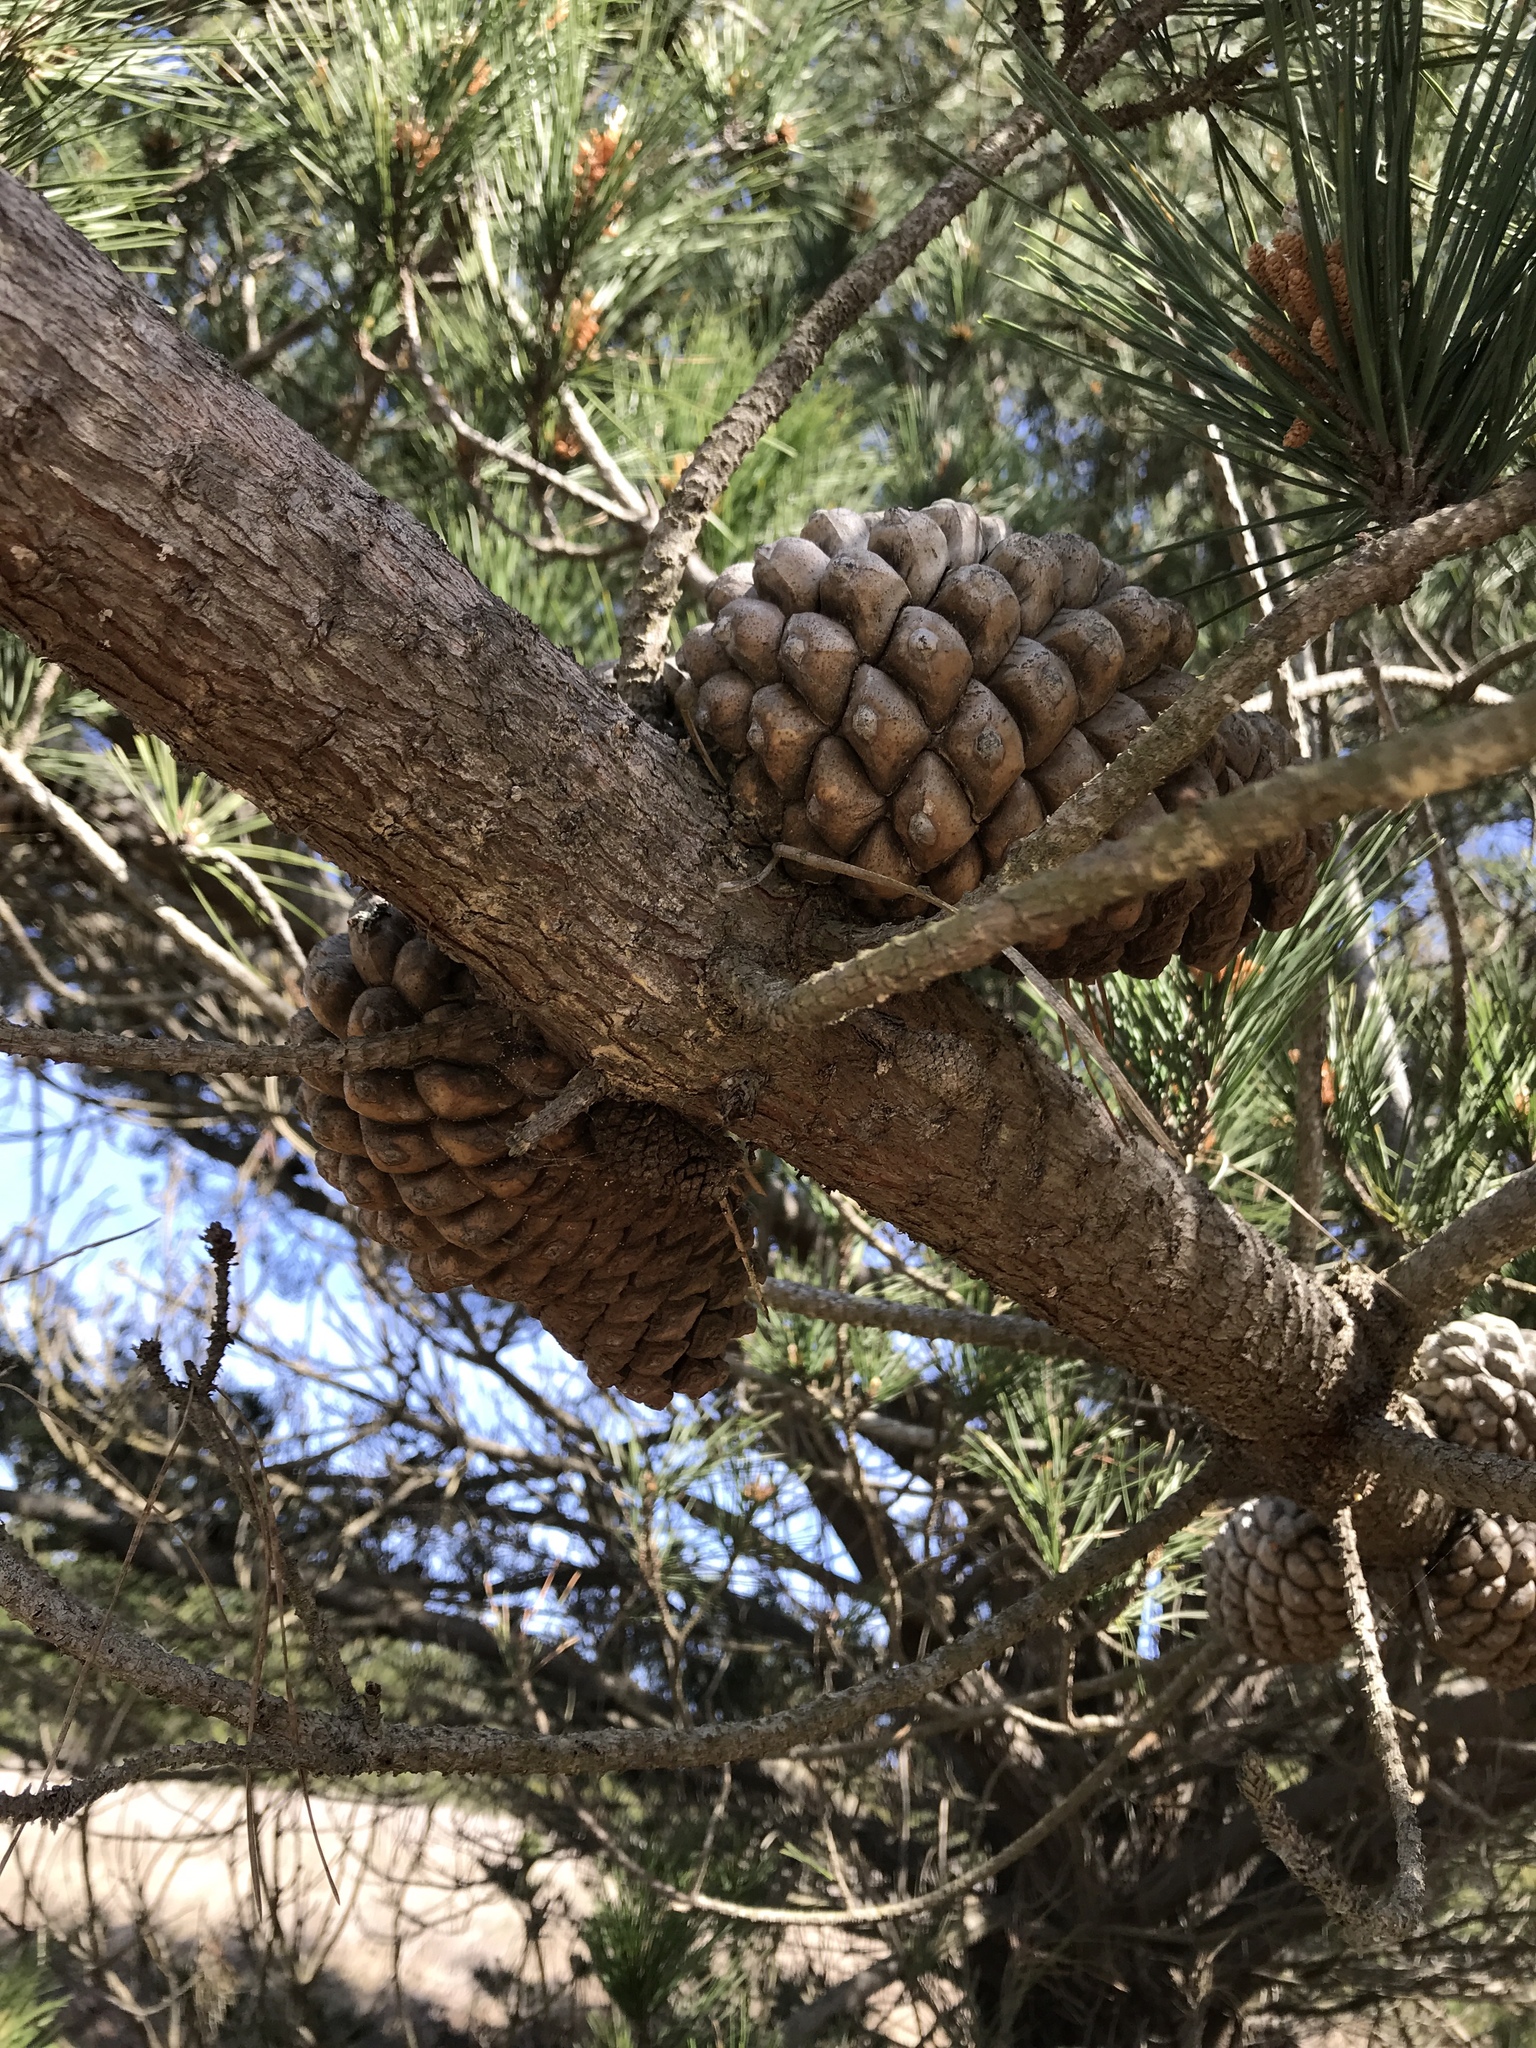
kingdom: Plantae
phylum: Tracheophyta
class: Pinopsida
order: Pinales
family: Pinaceae
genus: Pinus
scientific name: Pinus radiata
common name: Monterey pine
